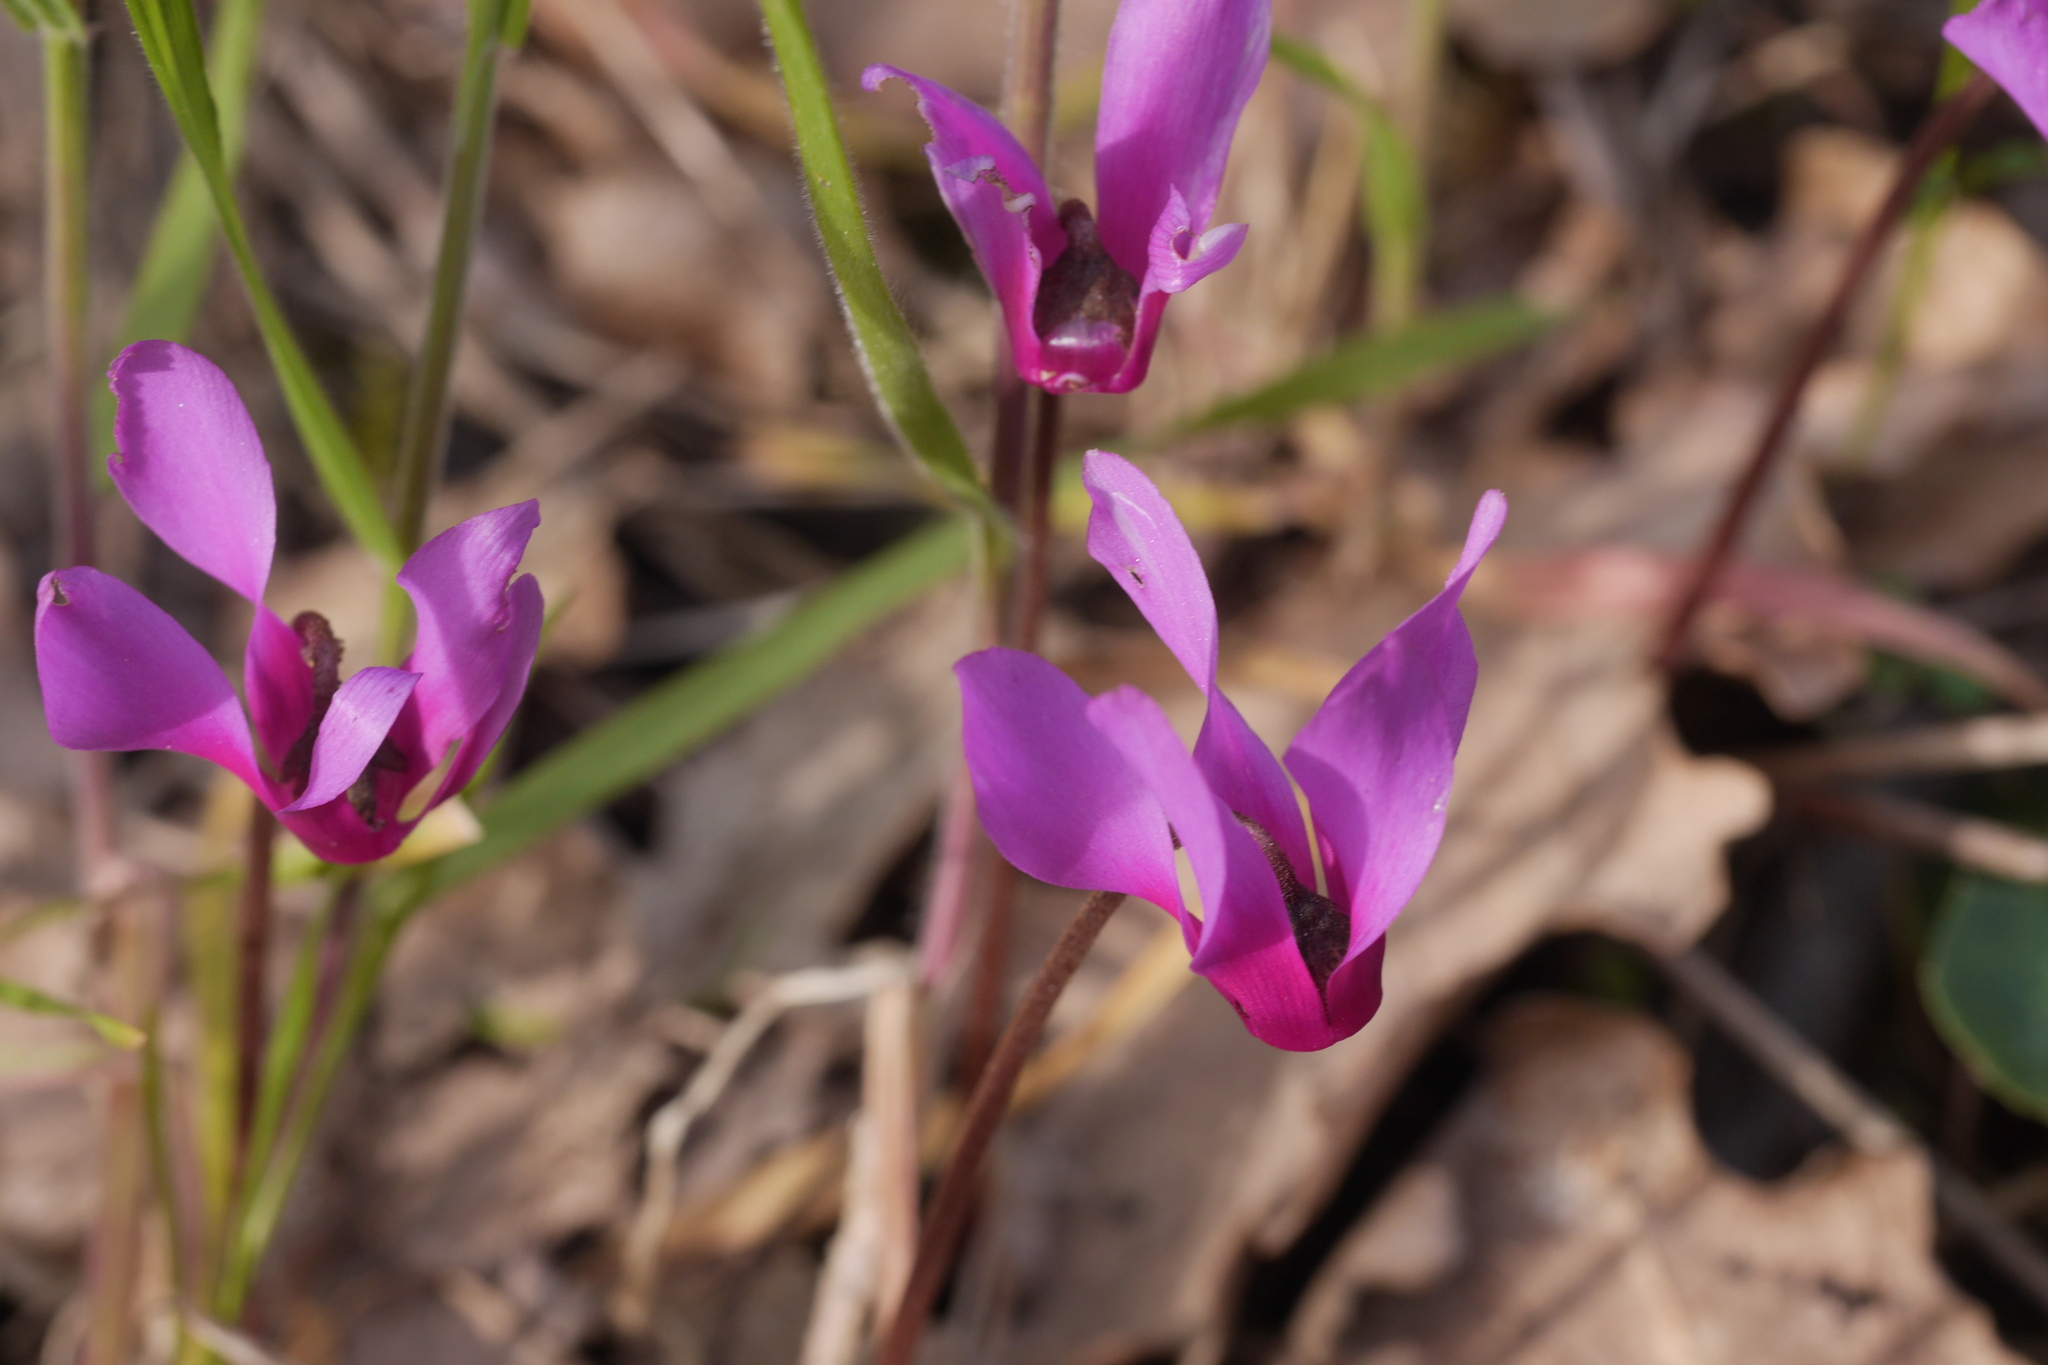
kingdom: Plantae
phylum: Tracheophyta
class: Magnoliopsida
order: Ericales
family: Primulaceae
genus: Cyclamen
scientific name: Cyclamen repandum
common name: Spring sowbread
